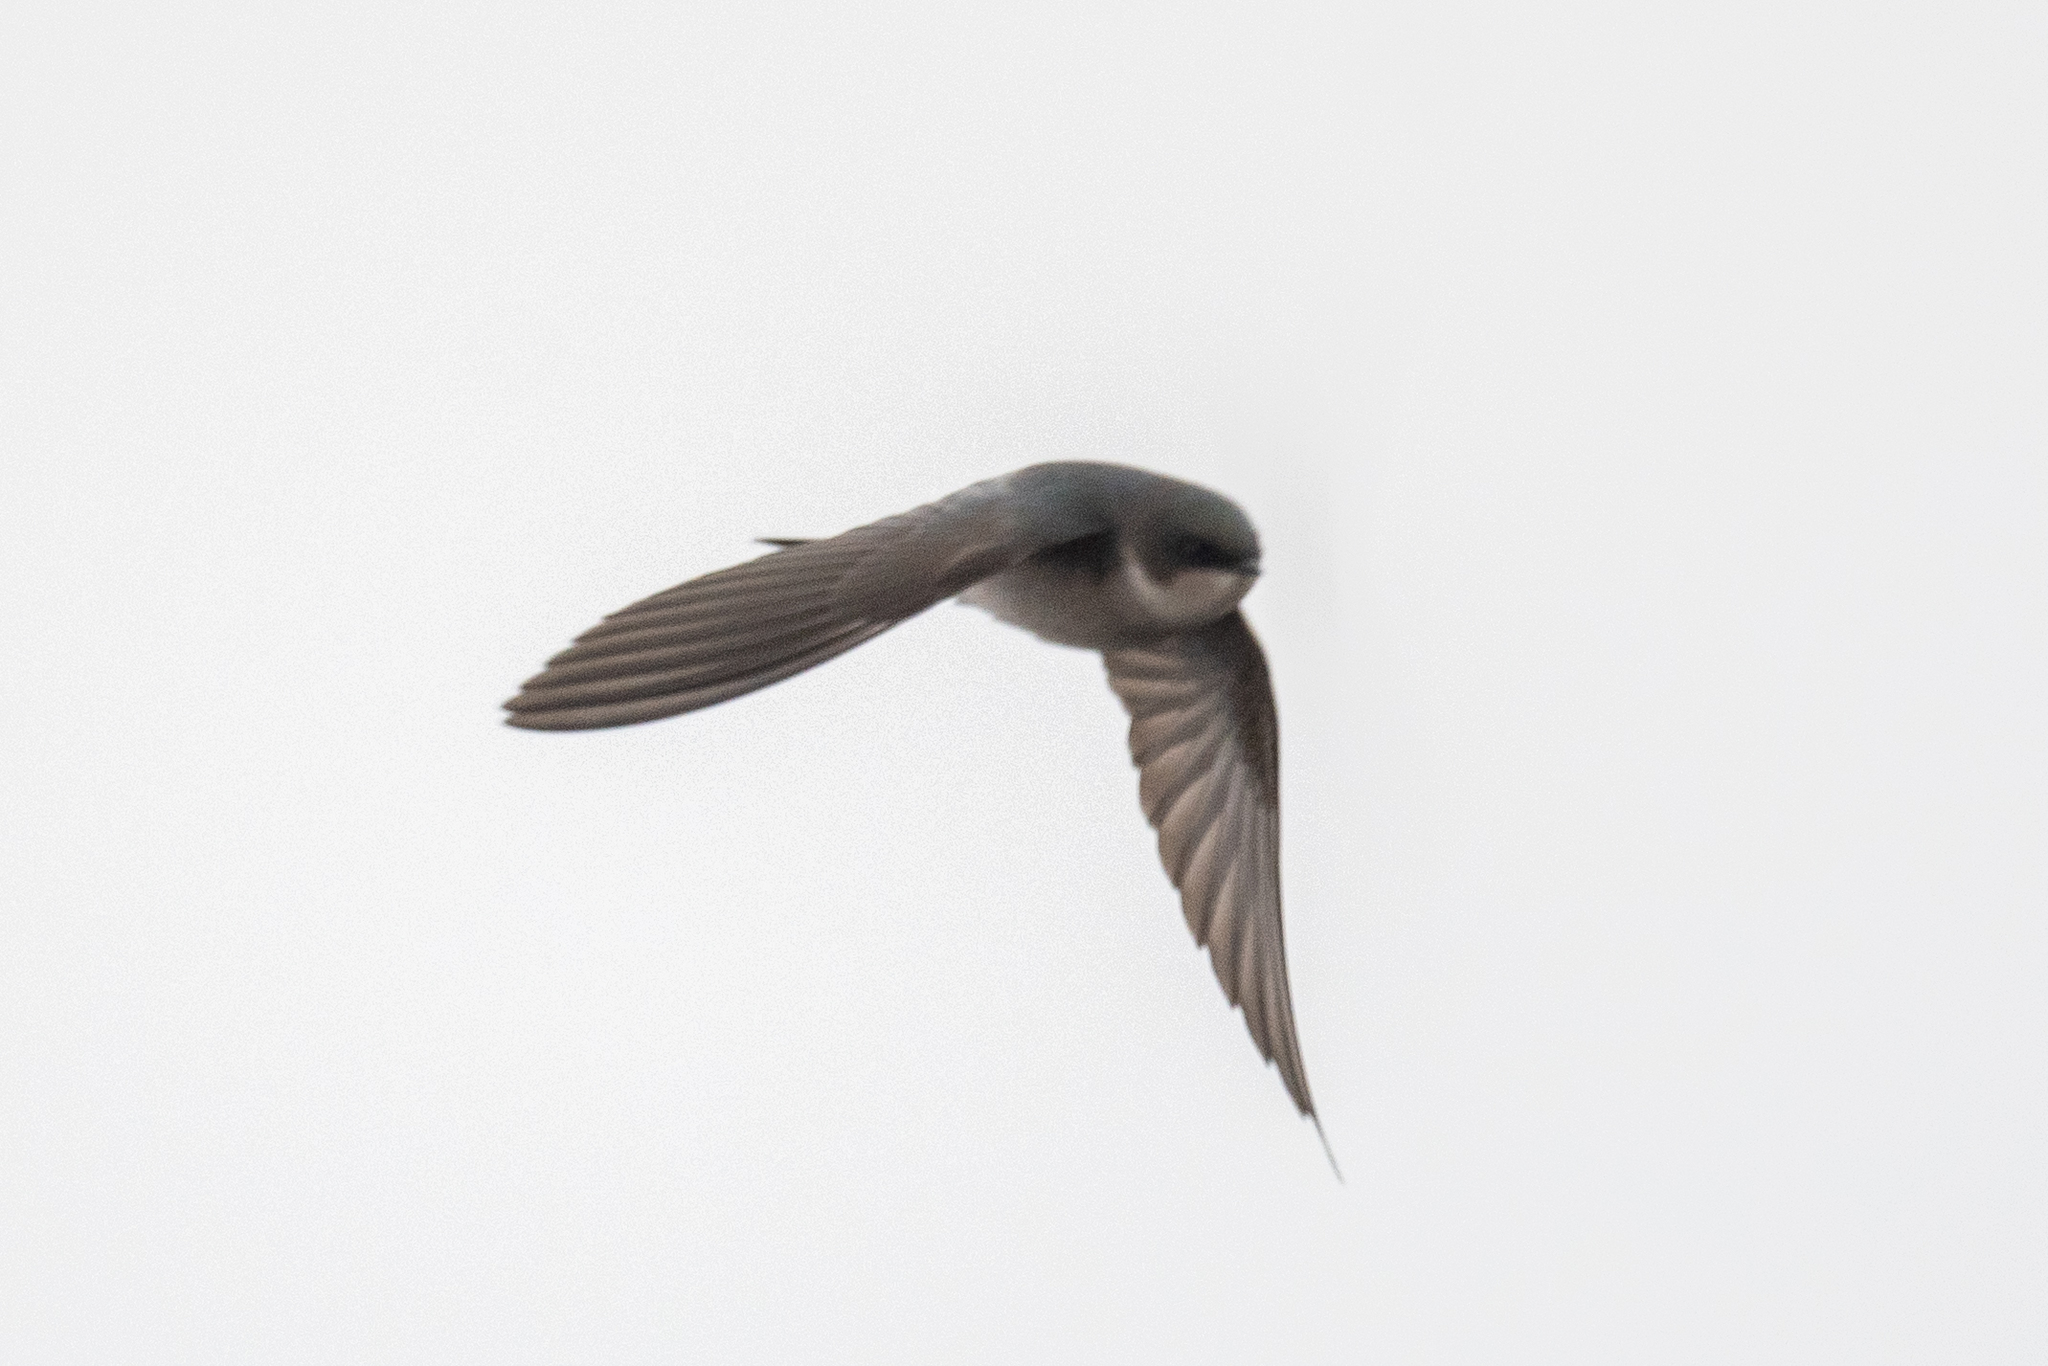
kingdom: Animalia
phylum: Chordata
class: Aves
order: Passeriformes
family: Hirundinidae
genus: Tachycineta
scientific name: Tachycineta bicolor
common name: Tree swallow
